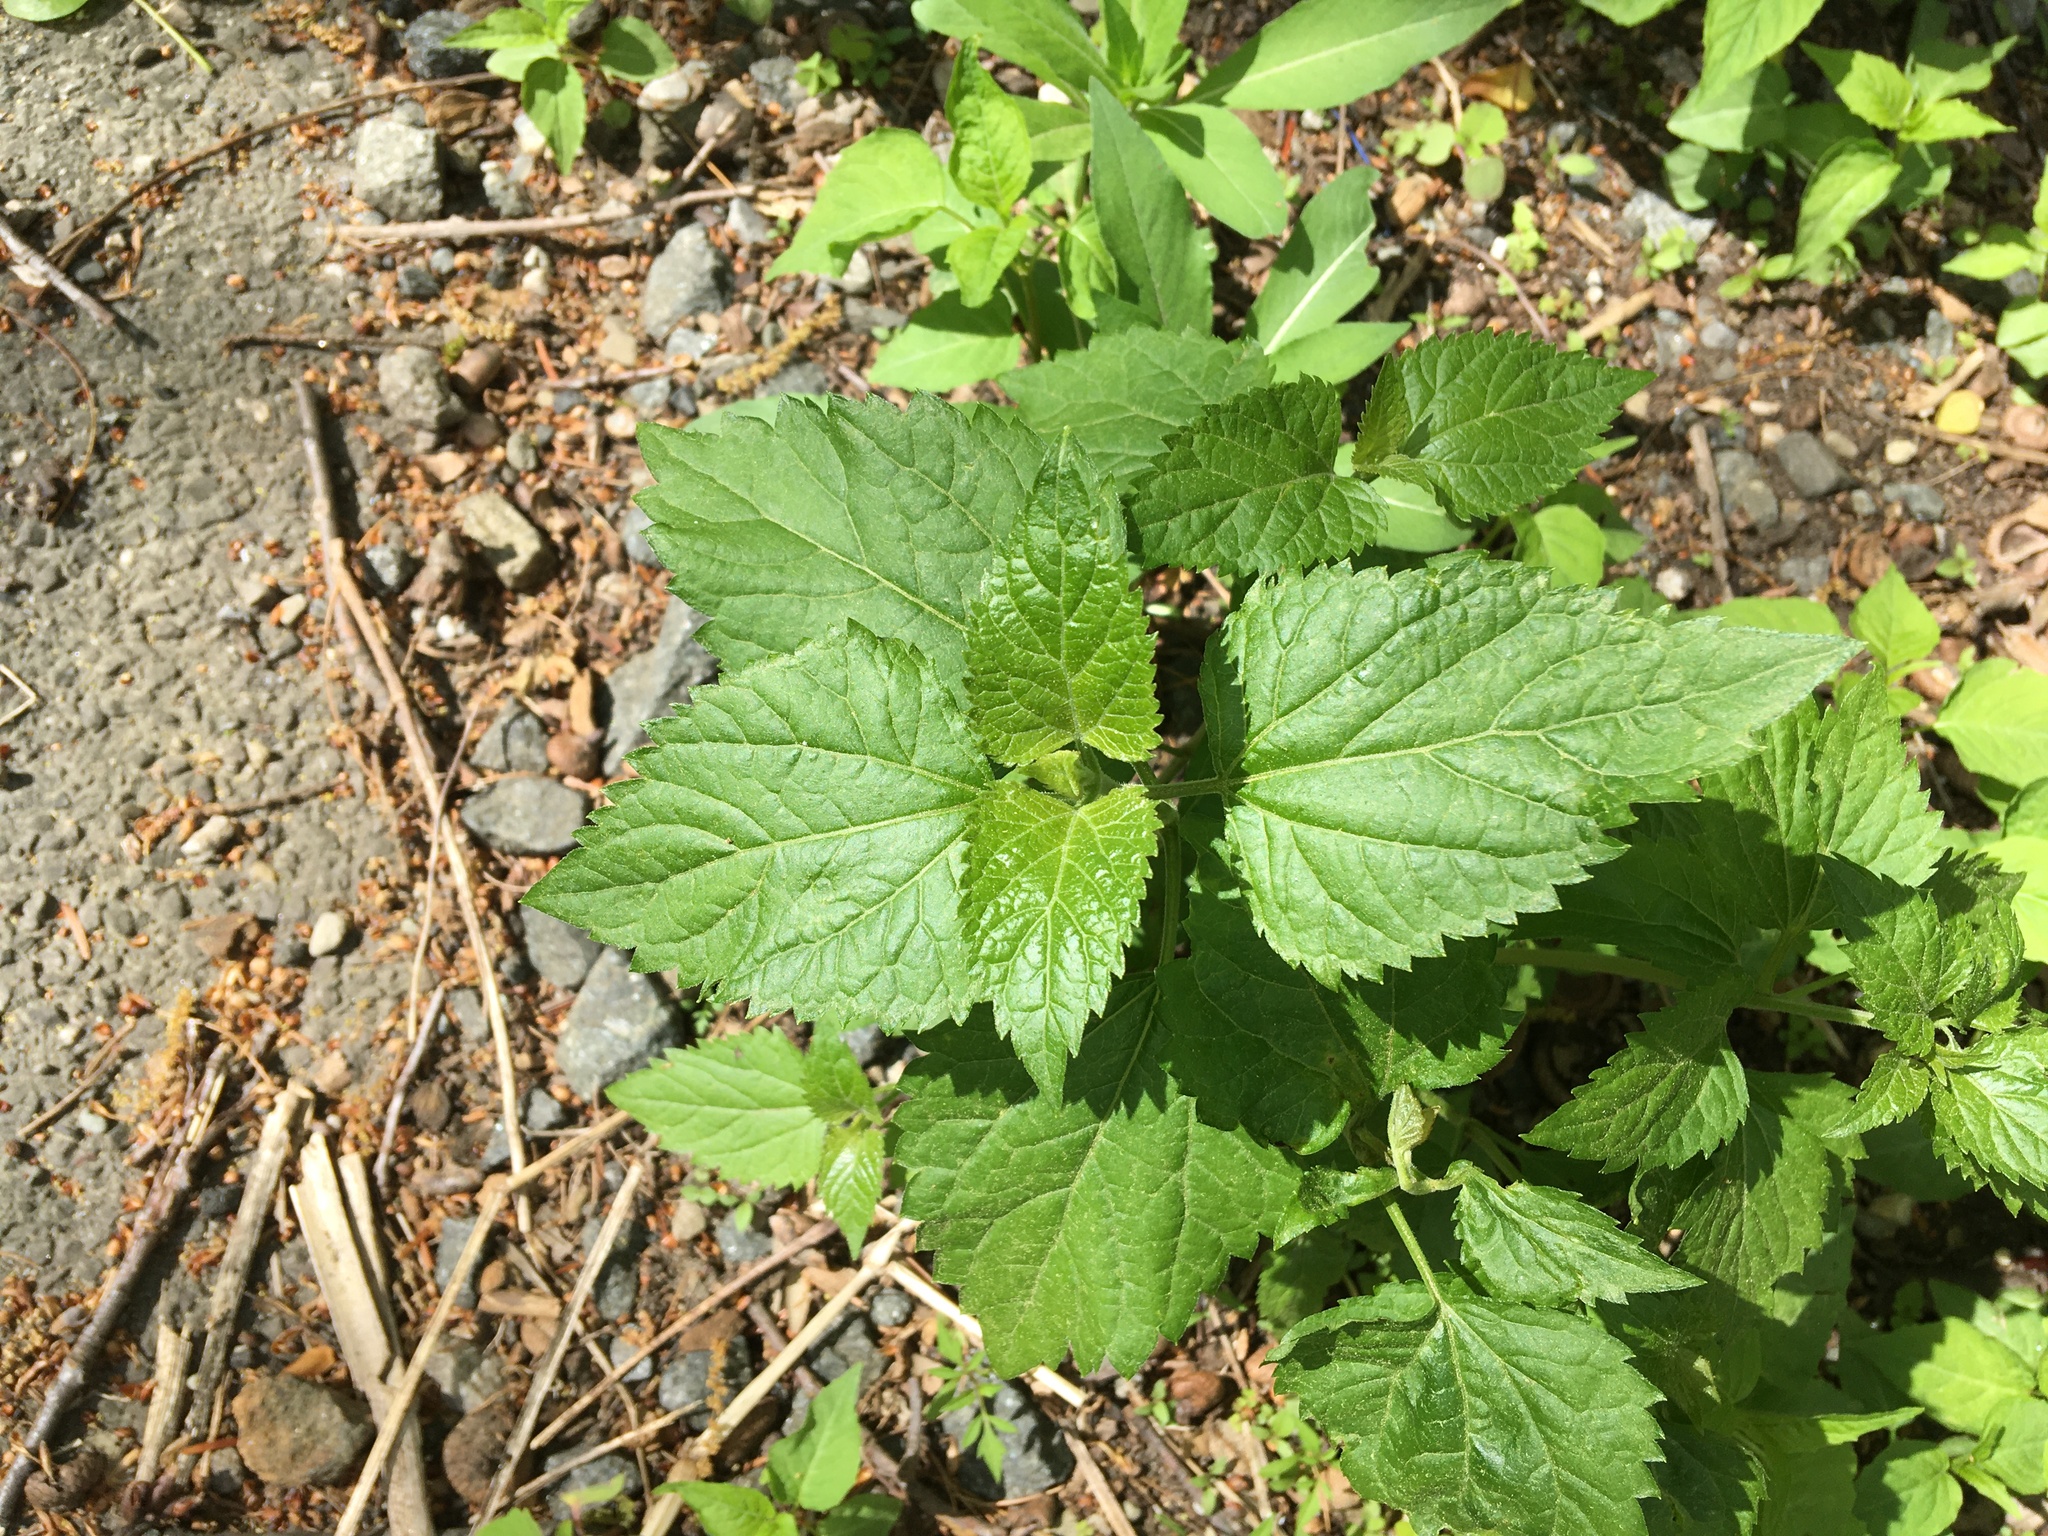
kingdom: Plantae
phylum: Tracheophyta
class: Magnoliopsida
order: Asterales
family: Asteraceae
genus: Ageratina
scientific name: Ageratina altissima
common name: White snakeroot
